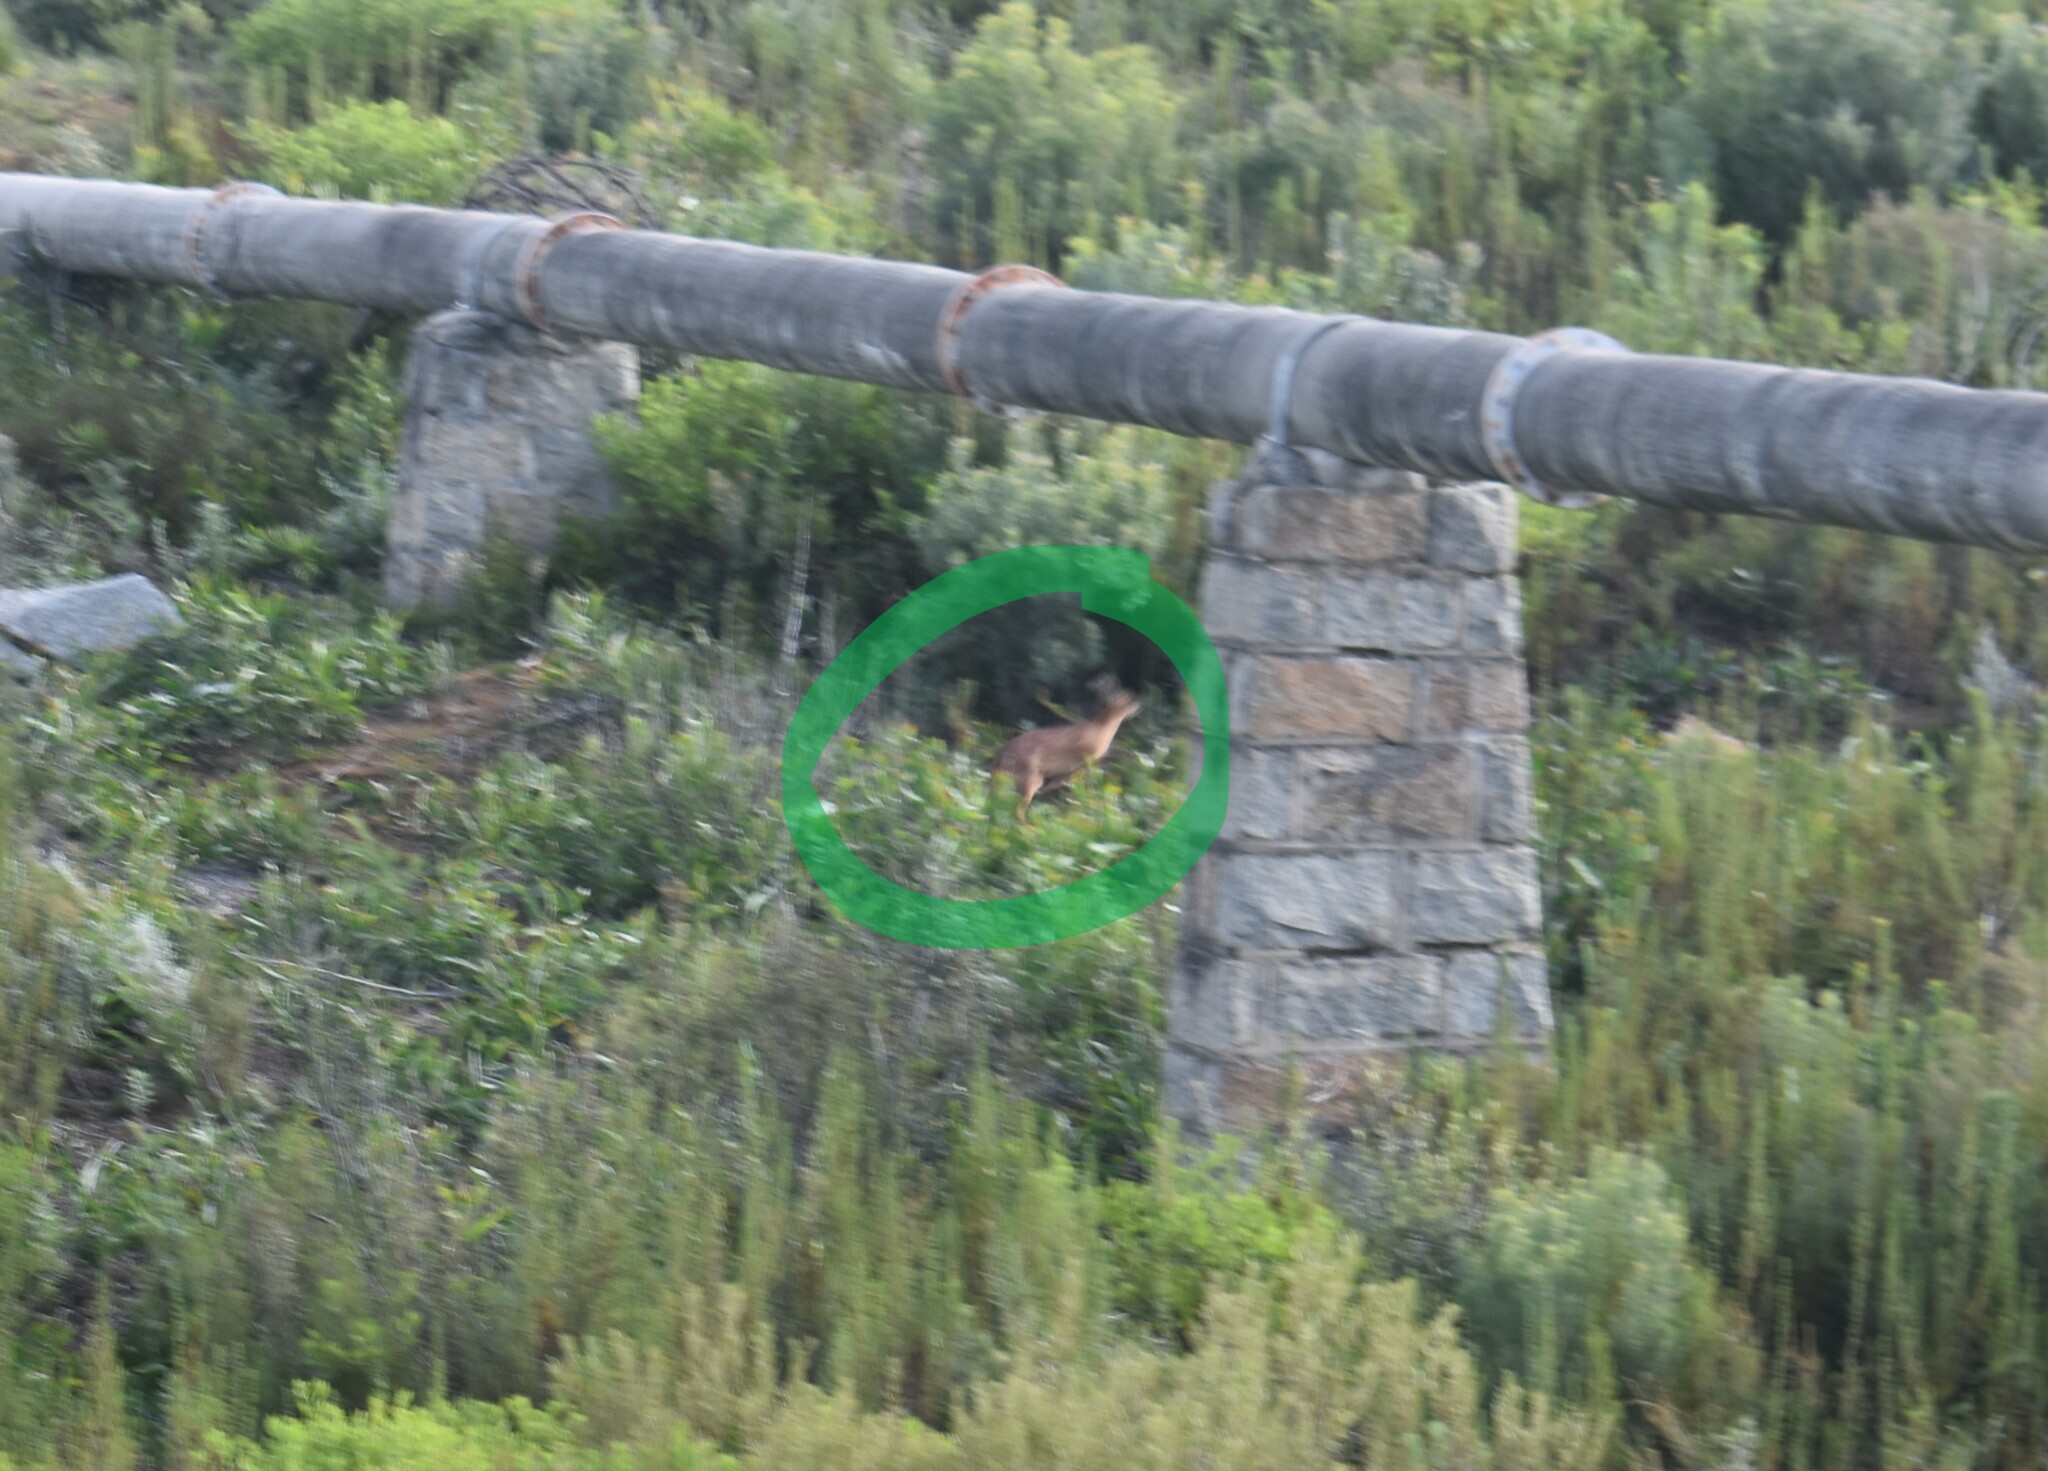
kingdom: Animalia
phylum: Chordata
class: Mammalia
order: Artiodactyla
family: Bovidae
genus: Raphicerus
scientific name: Raphicerus melanotis
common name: Cape grysbok
